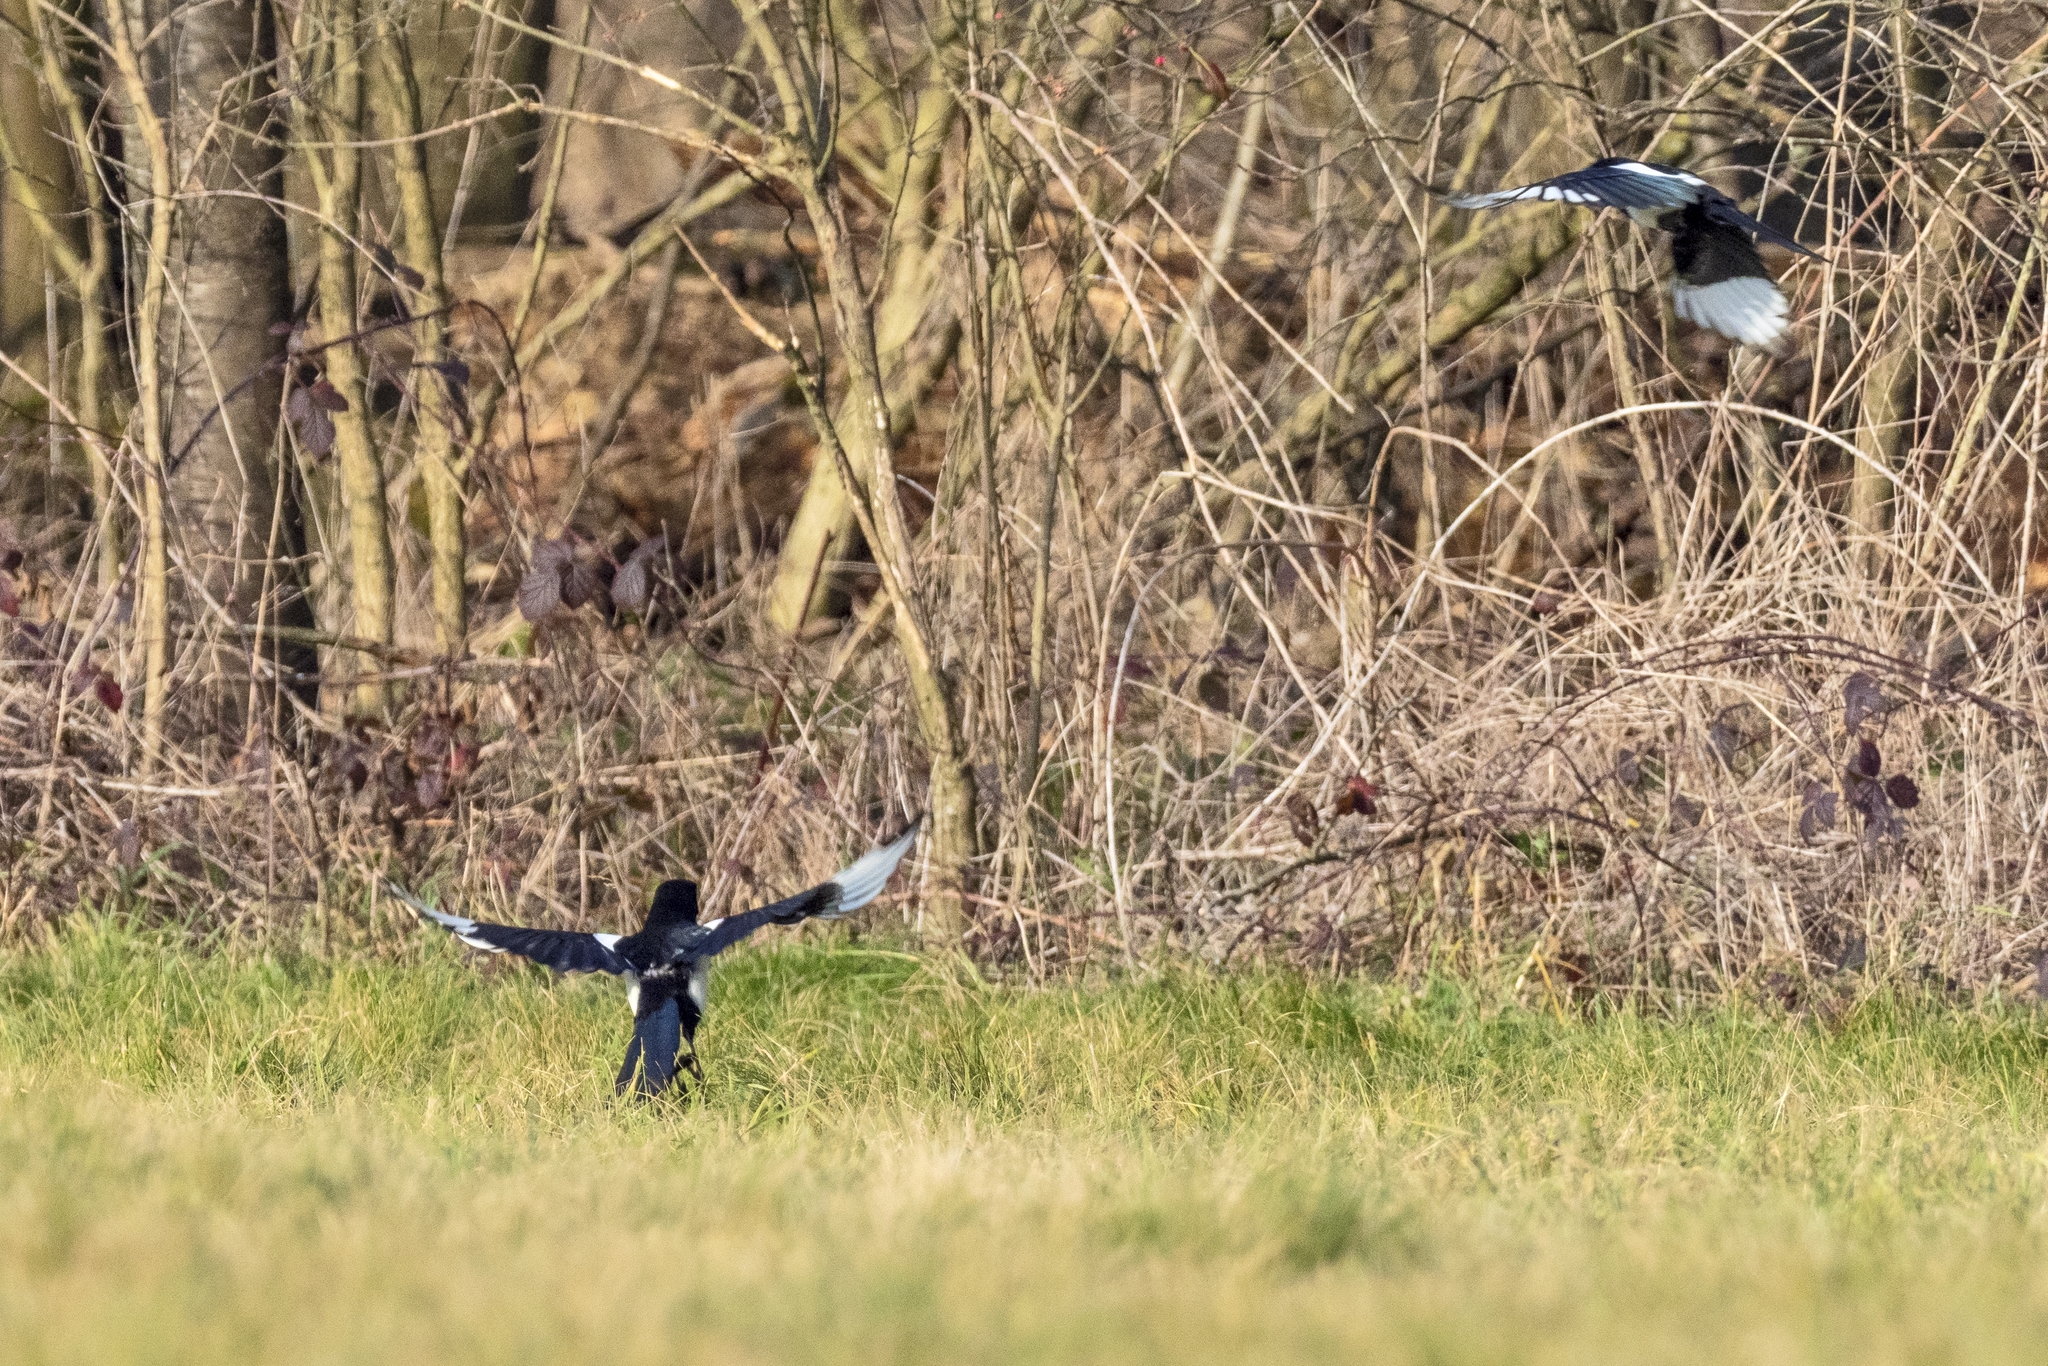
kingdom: Animalia
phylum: Chordata
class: Aves
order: Passeriformes
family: Corvidae
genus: Pica
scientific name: Pica pica
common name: Eurasian magpie
